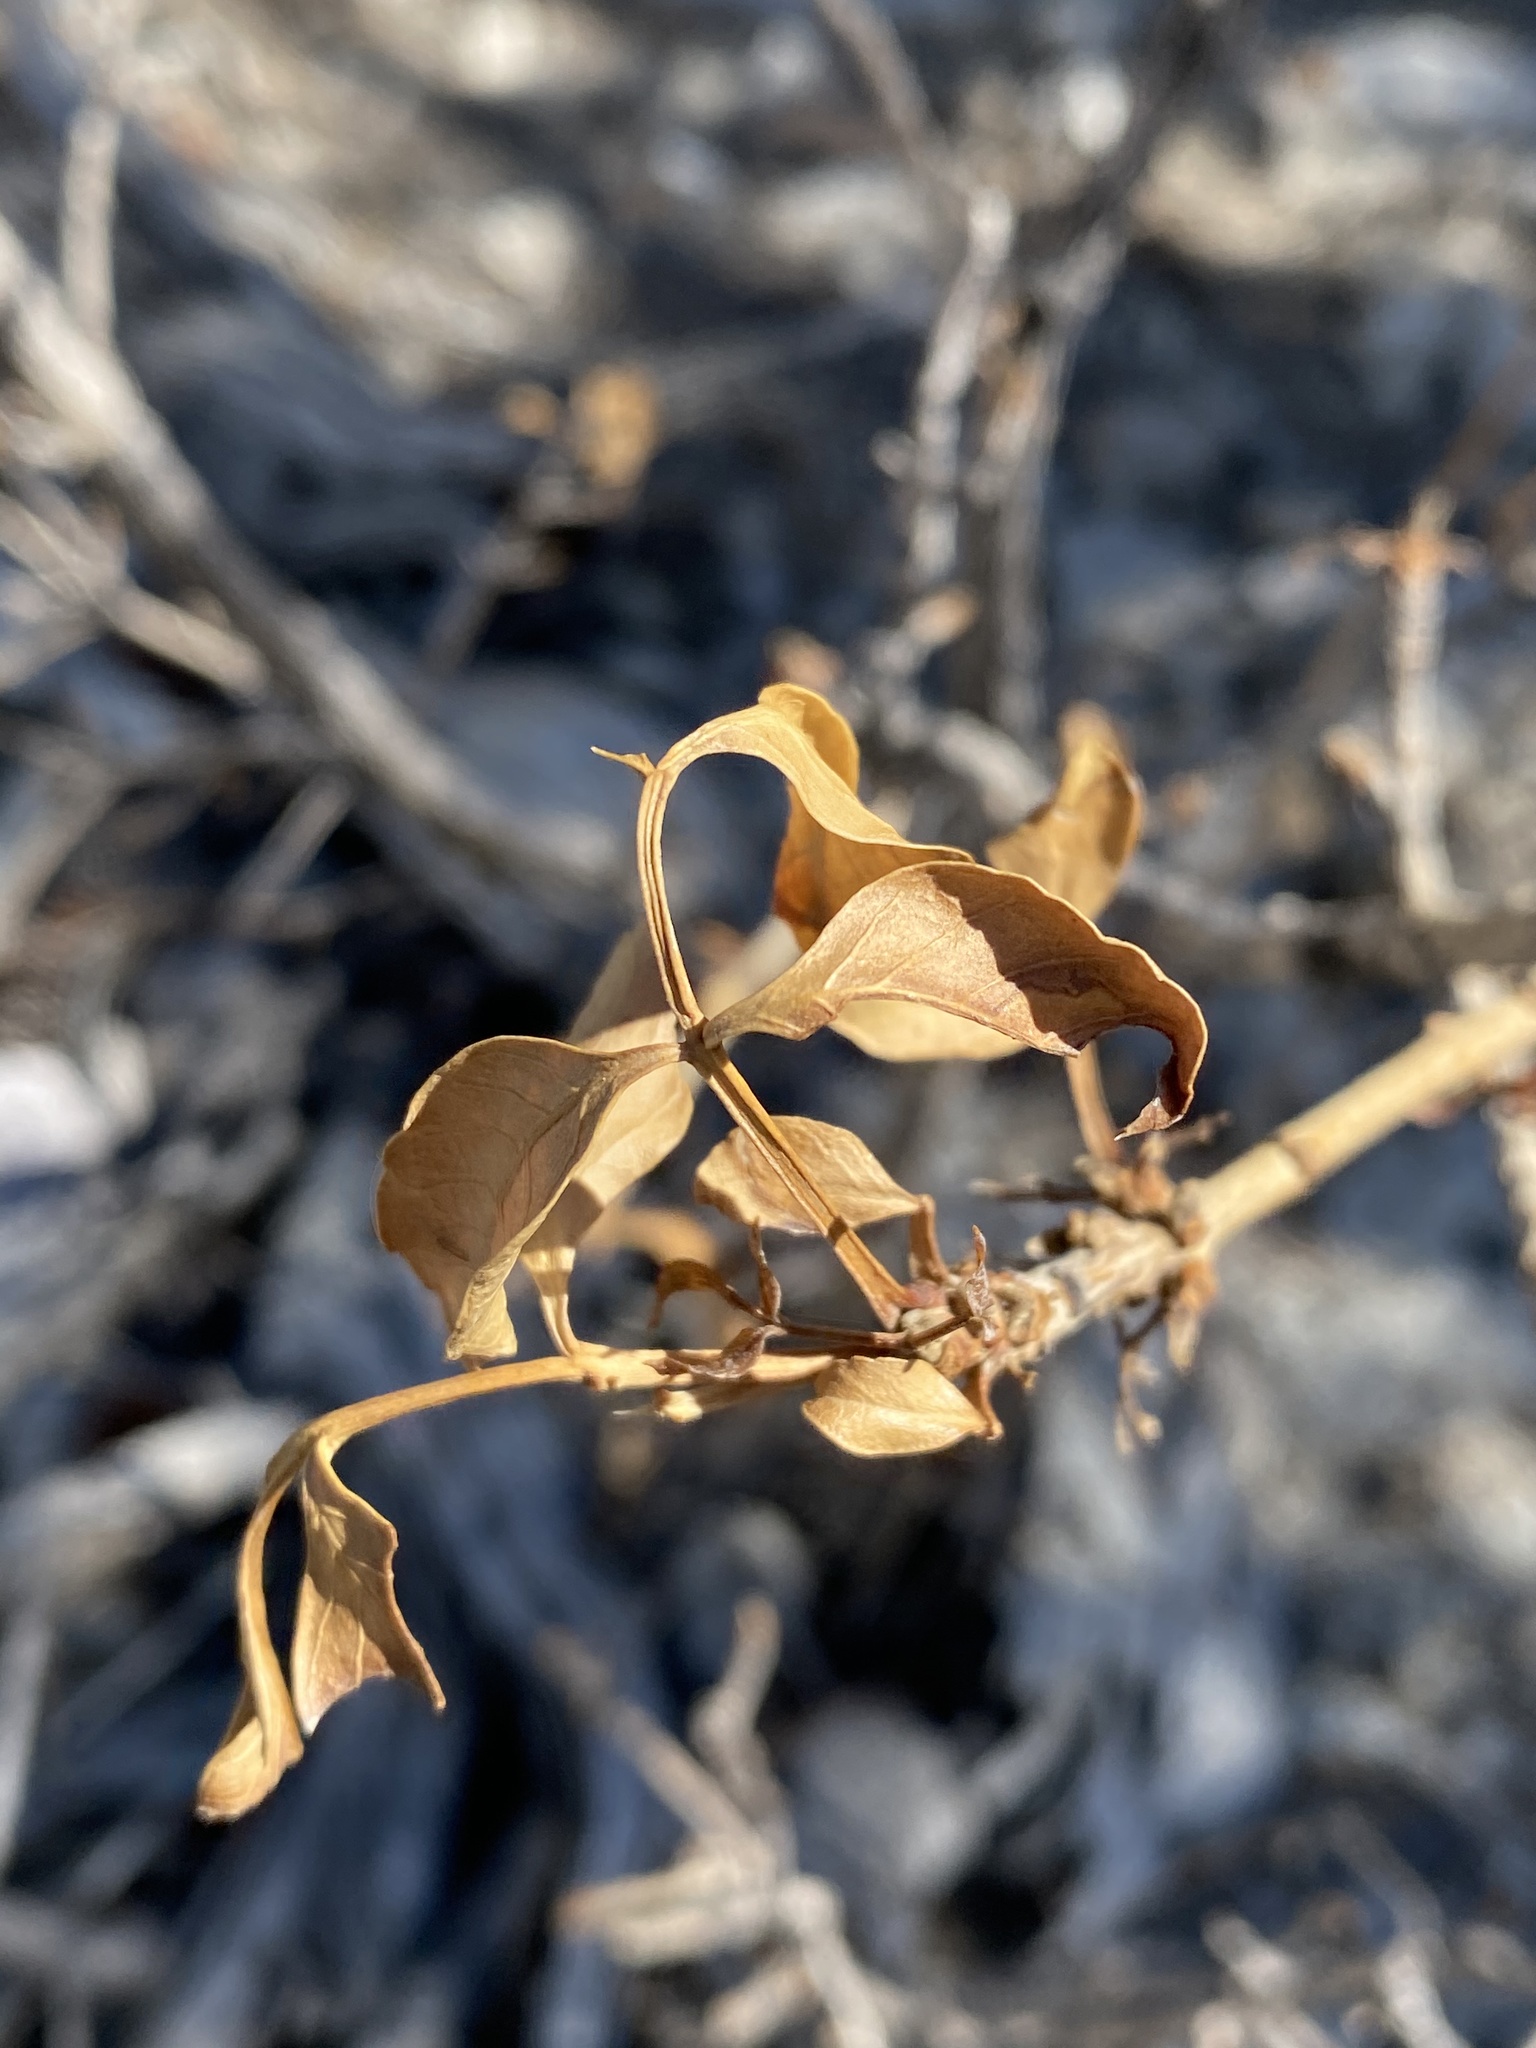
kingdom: Plantae
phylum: Tracheophyta
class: Magnoliopsida
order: Lamiales
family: Oleaceae
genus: Fraxinus
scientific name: Fraxinus anomala
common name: Utah ash
